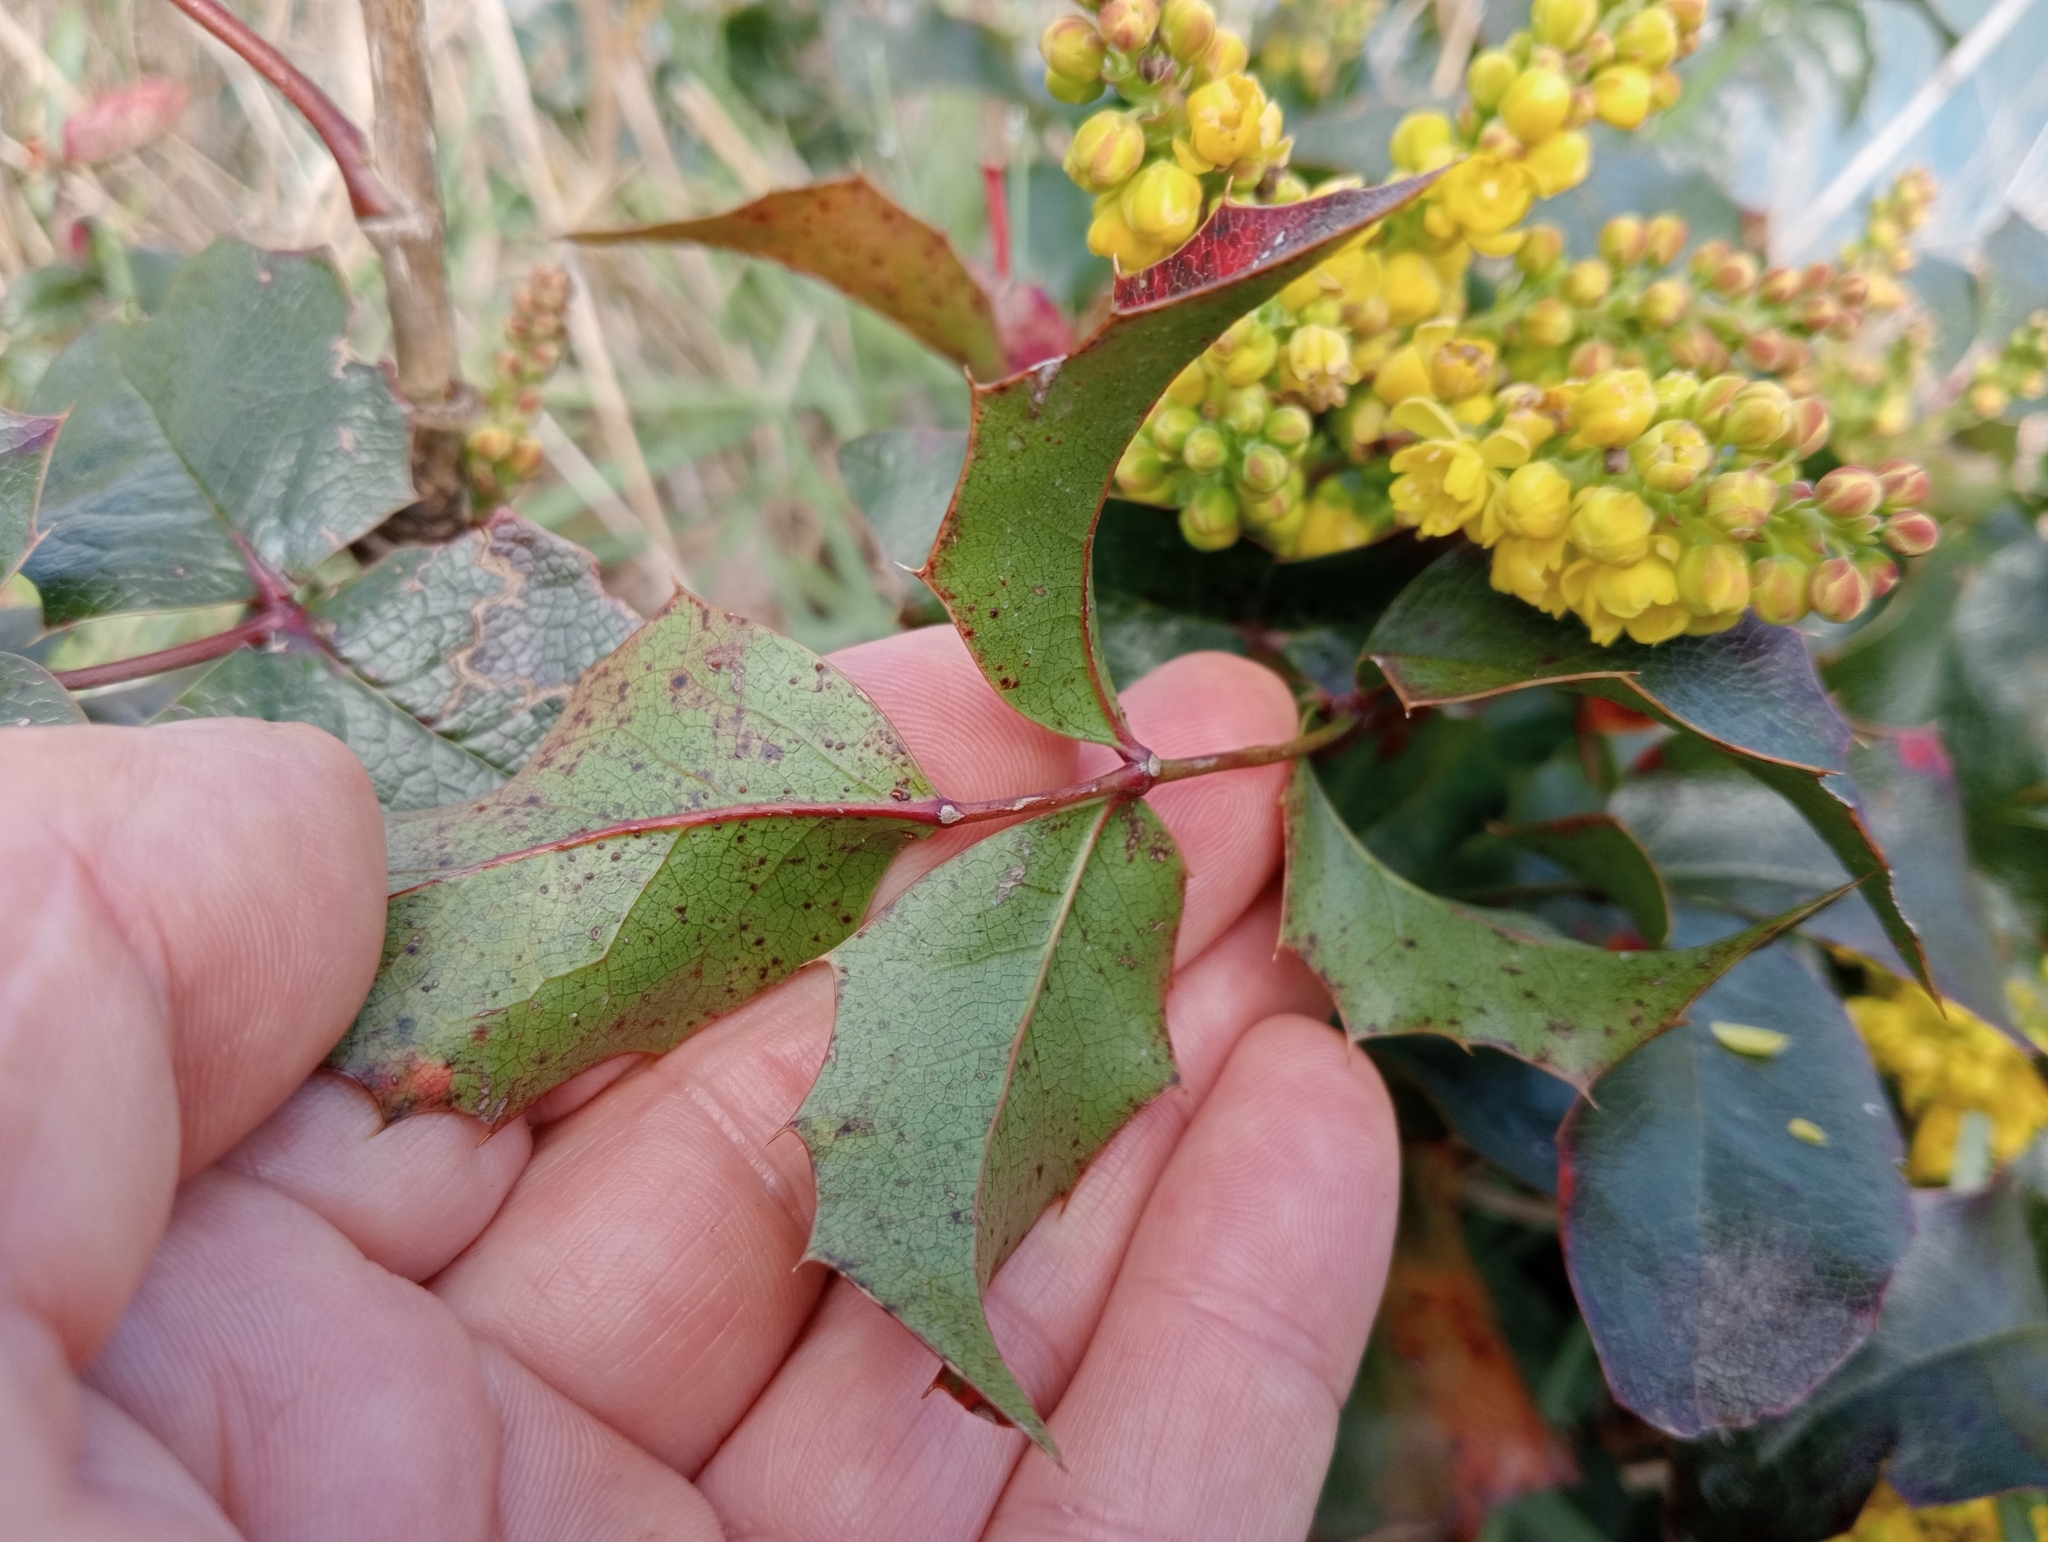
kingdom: Plantae
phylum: Tracheophyta
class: Magnoliopsida
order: Ranunculales
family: Berberidaceae
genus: Mahonia
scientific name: Mahonia aquifolium
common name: Oregon-grape
